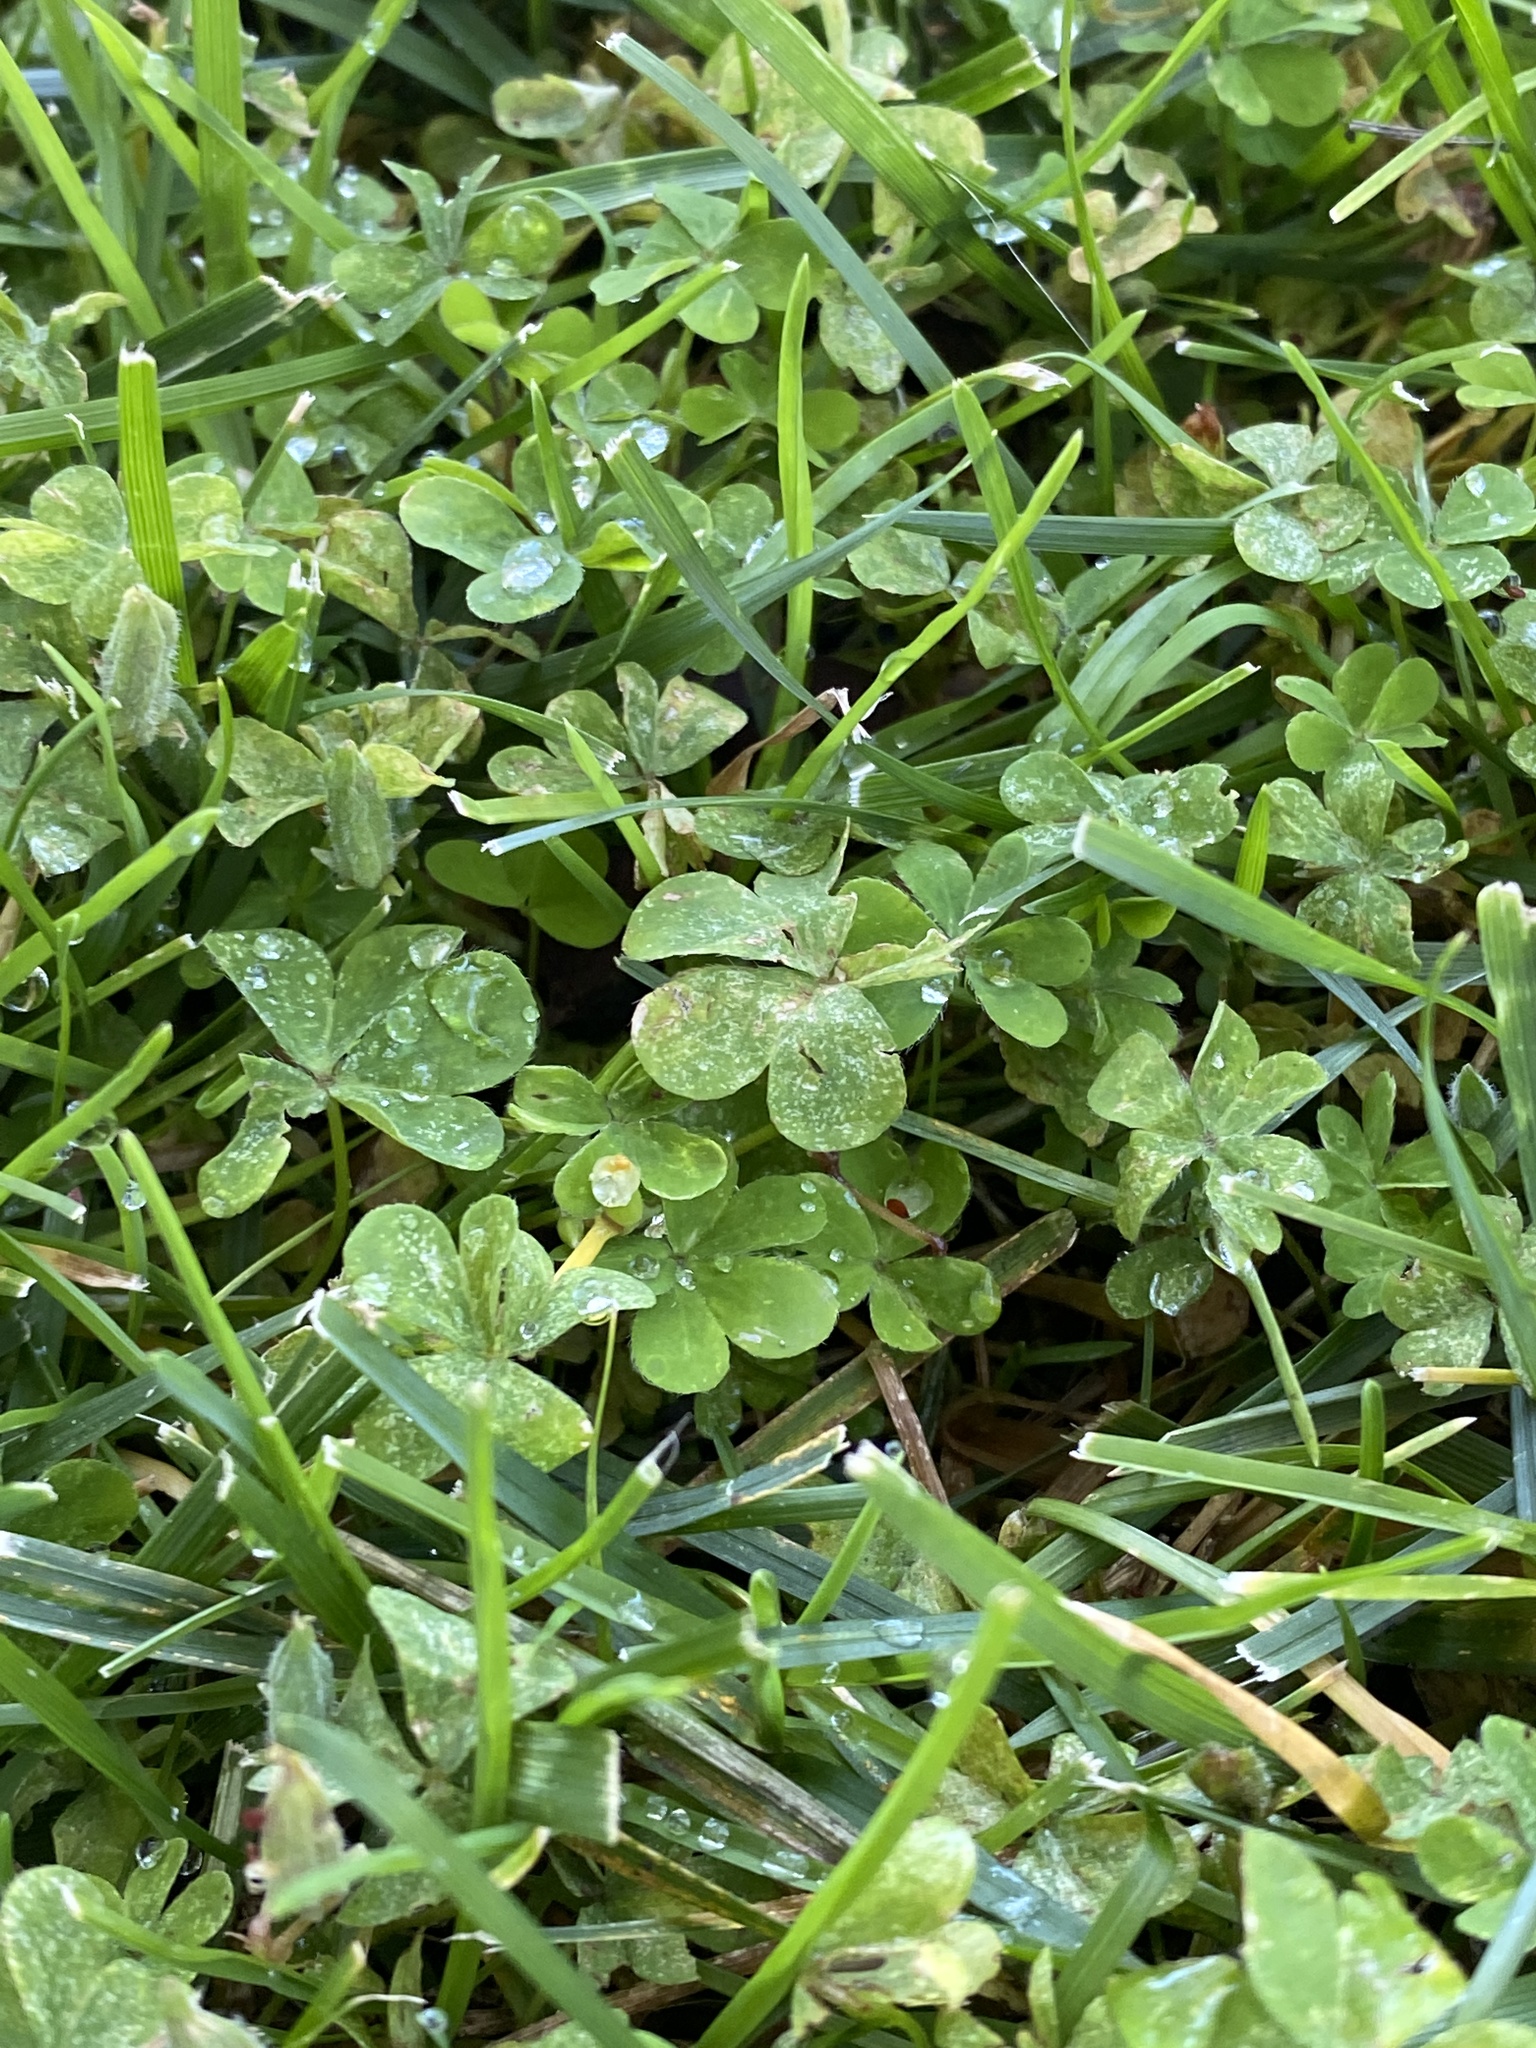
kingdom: Plantae
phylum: Tracheophyta
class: Magnoliopsida
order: Oxalidales
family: Oxalidaceae
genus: Oxalis
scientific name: Oxalis corniculata
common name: Procumbent yellow-sorrel
